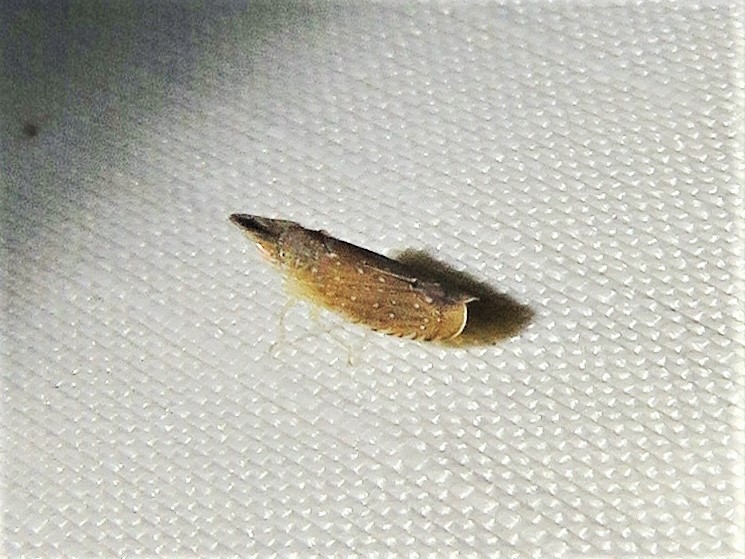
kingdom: Animalia
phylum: Arthropoda
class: Insecta
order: Hemiptera
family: Cicadellidae
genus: Scaphytopius
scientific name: Scaphytopius latus
